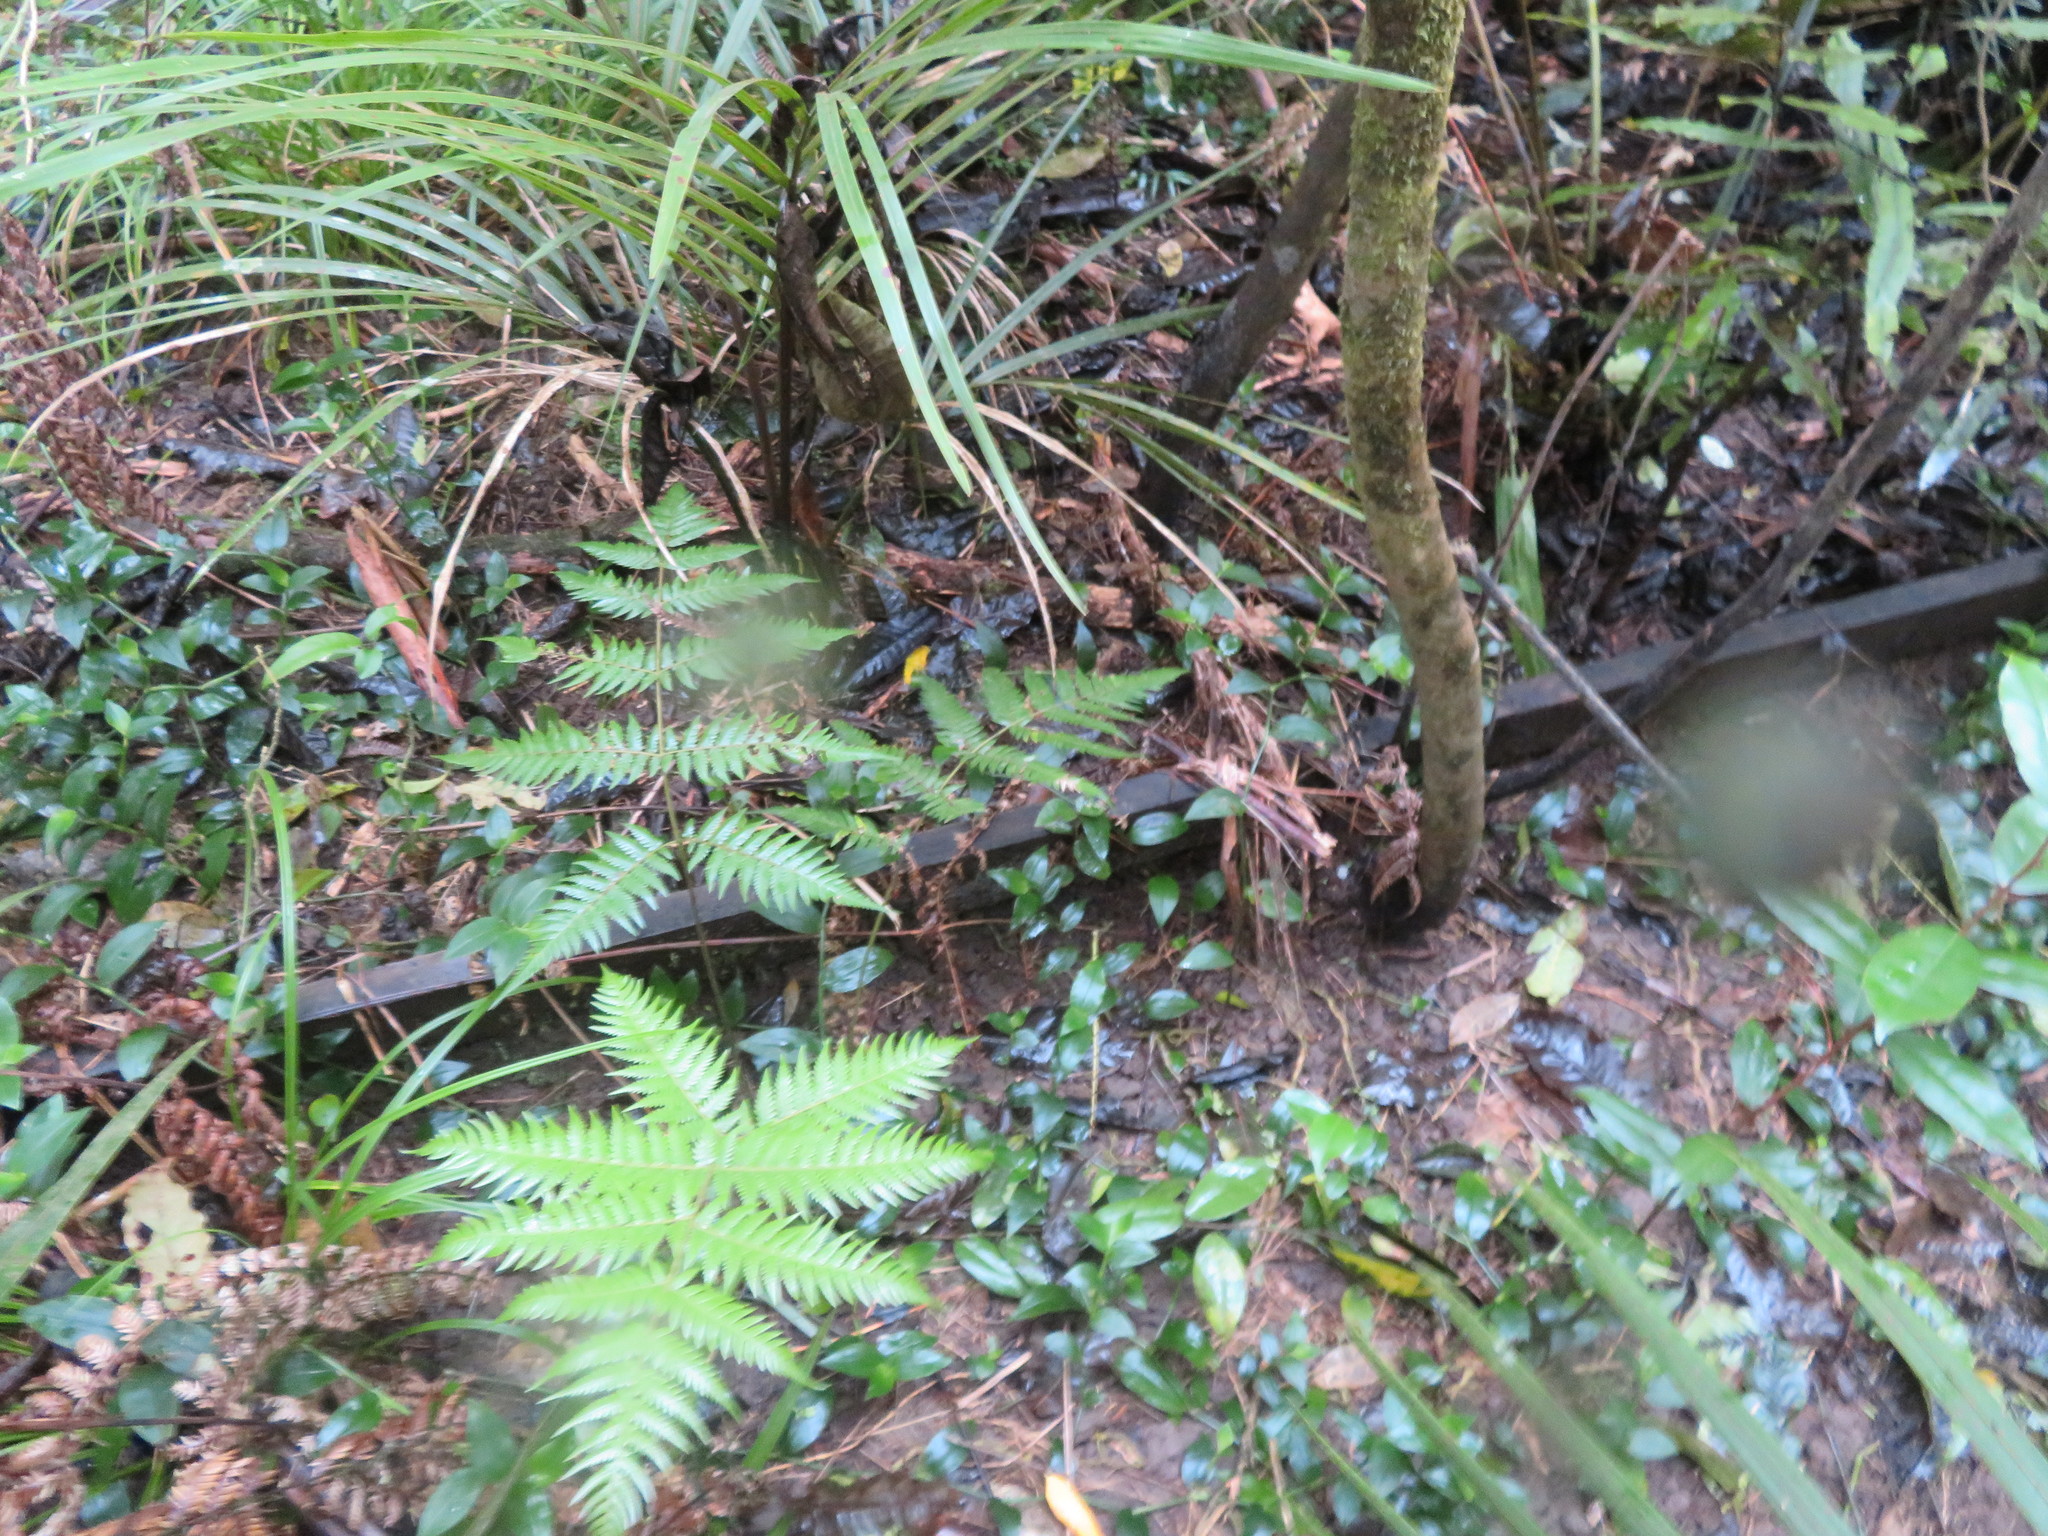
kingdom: Plantae
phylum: Tracheophyta
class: Polypodiopsida
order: Cyatheales
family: Cyatheaceae
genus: Alsophila
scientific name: Alsophila dealbata
